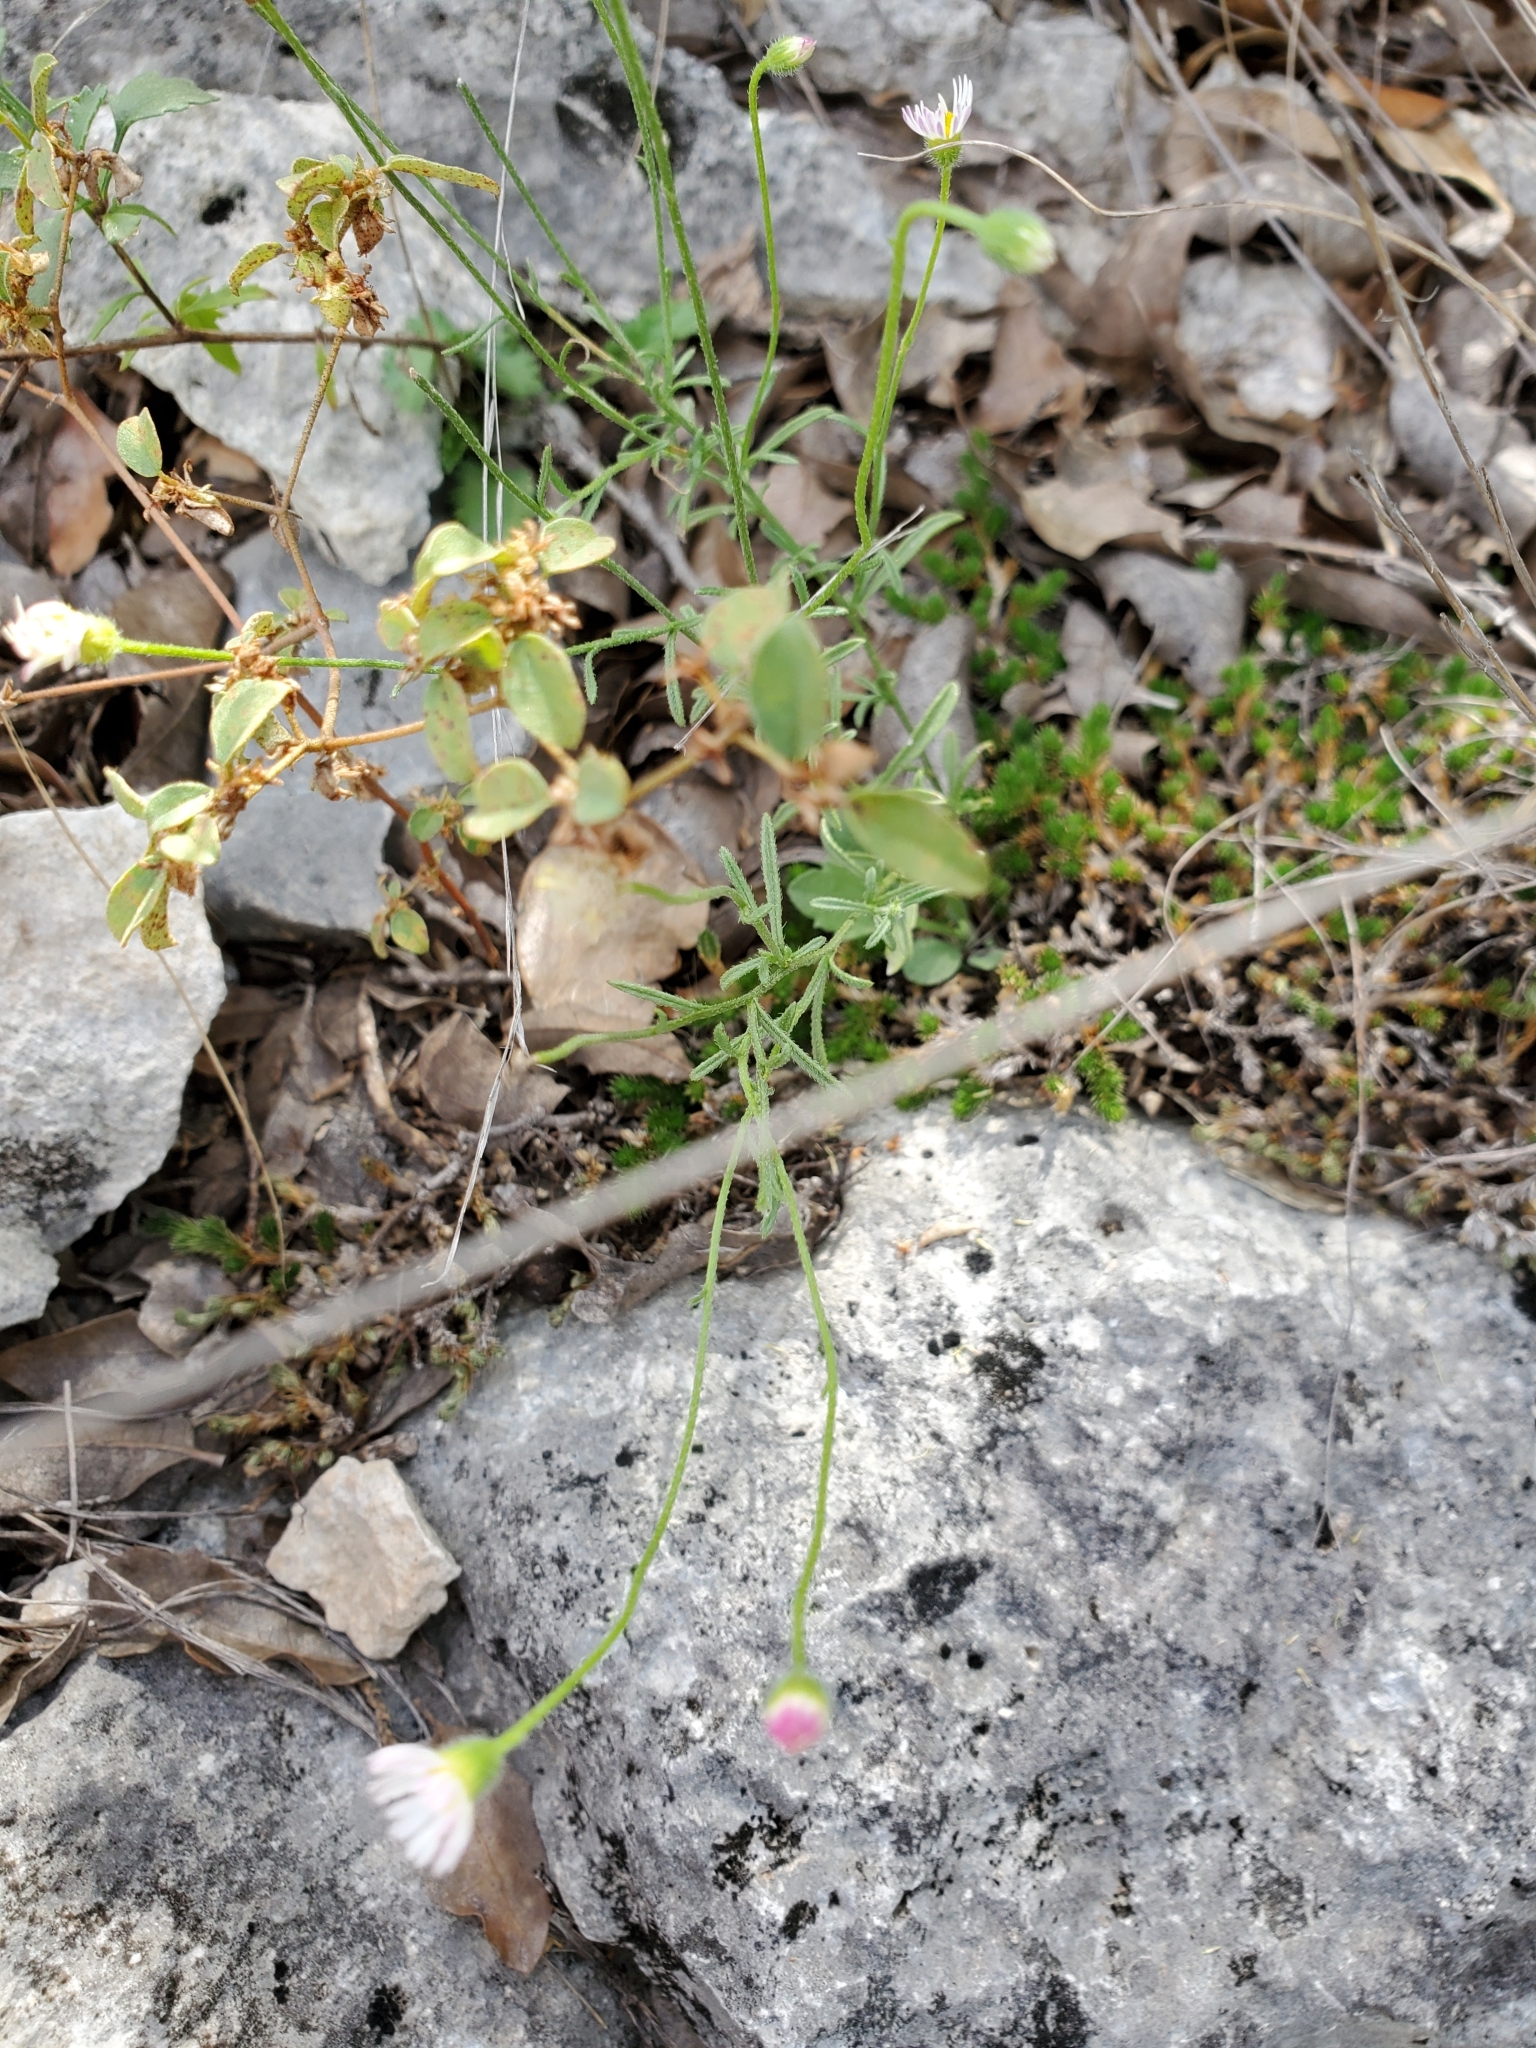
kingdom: Plantae
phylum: Tracheophyta
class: Magnoliopsida
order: Asterales
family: Asteraceae
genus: Erigeron
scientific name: Erigeron modestus
